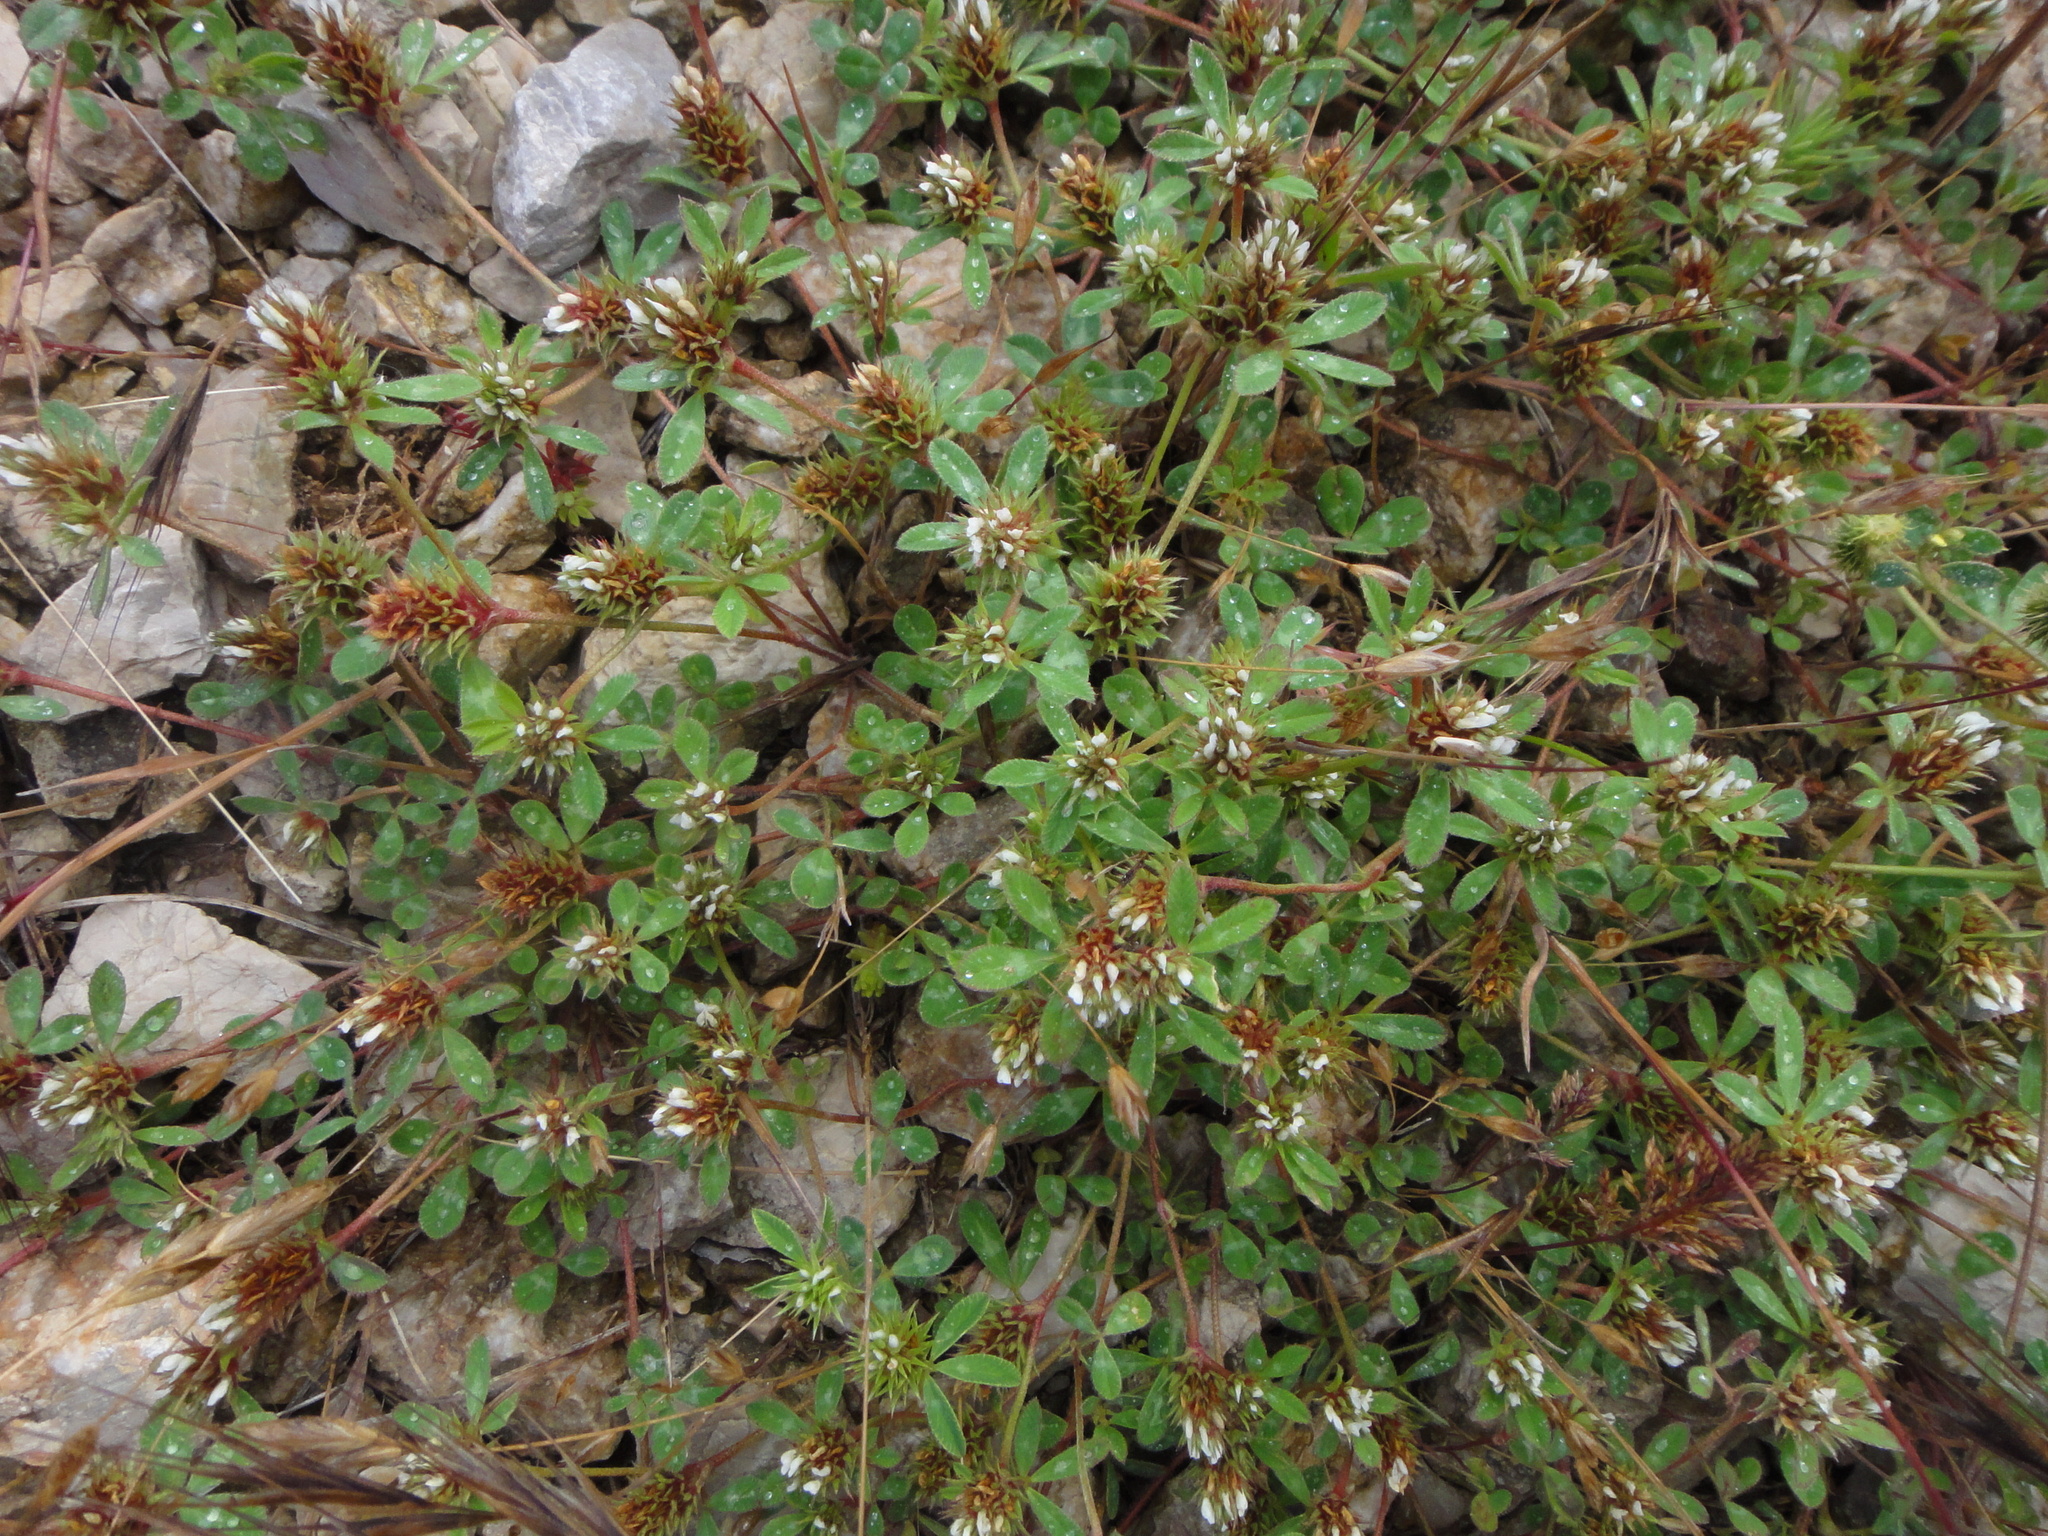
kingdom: Plantae
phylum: Tracheophyta
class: Magnoliopsida
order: Fabales
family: Fabaceae
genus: Trifolium
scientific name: Trifolium scabrum
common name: Rough clover
